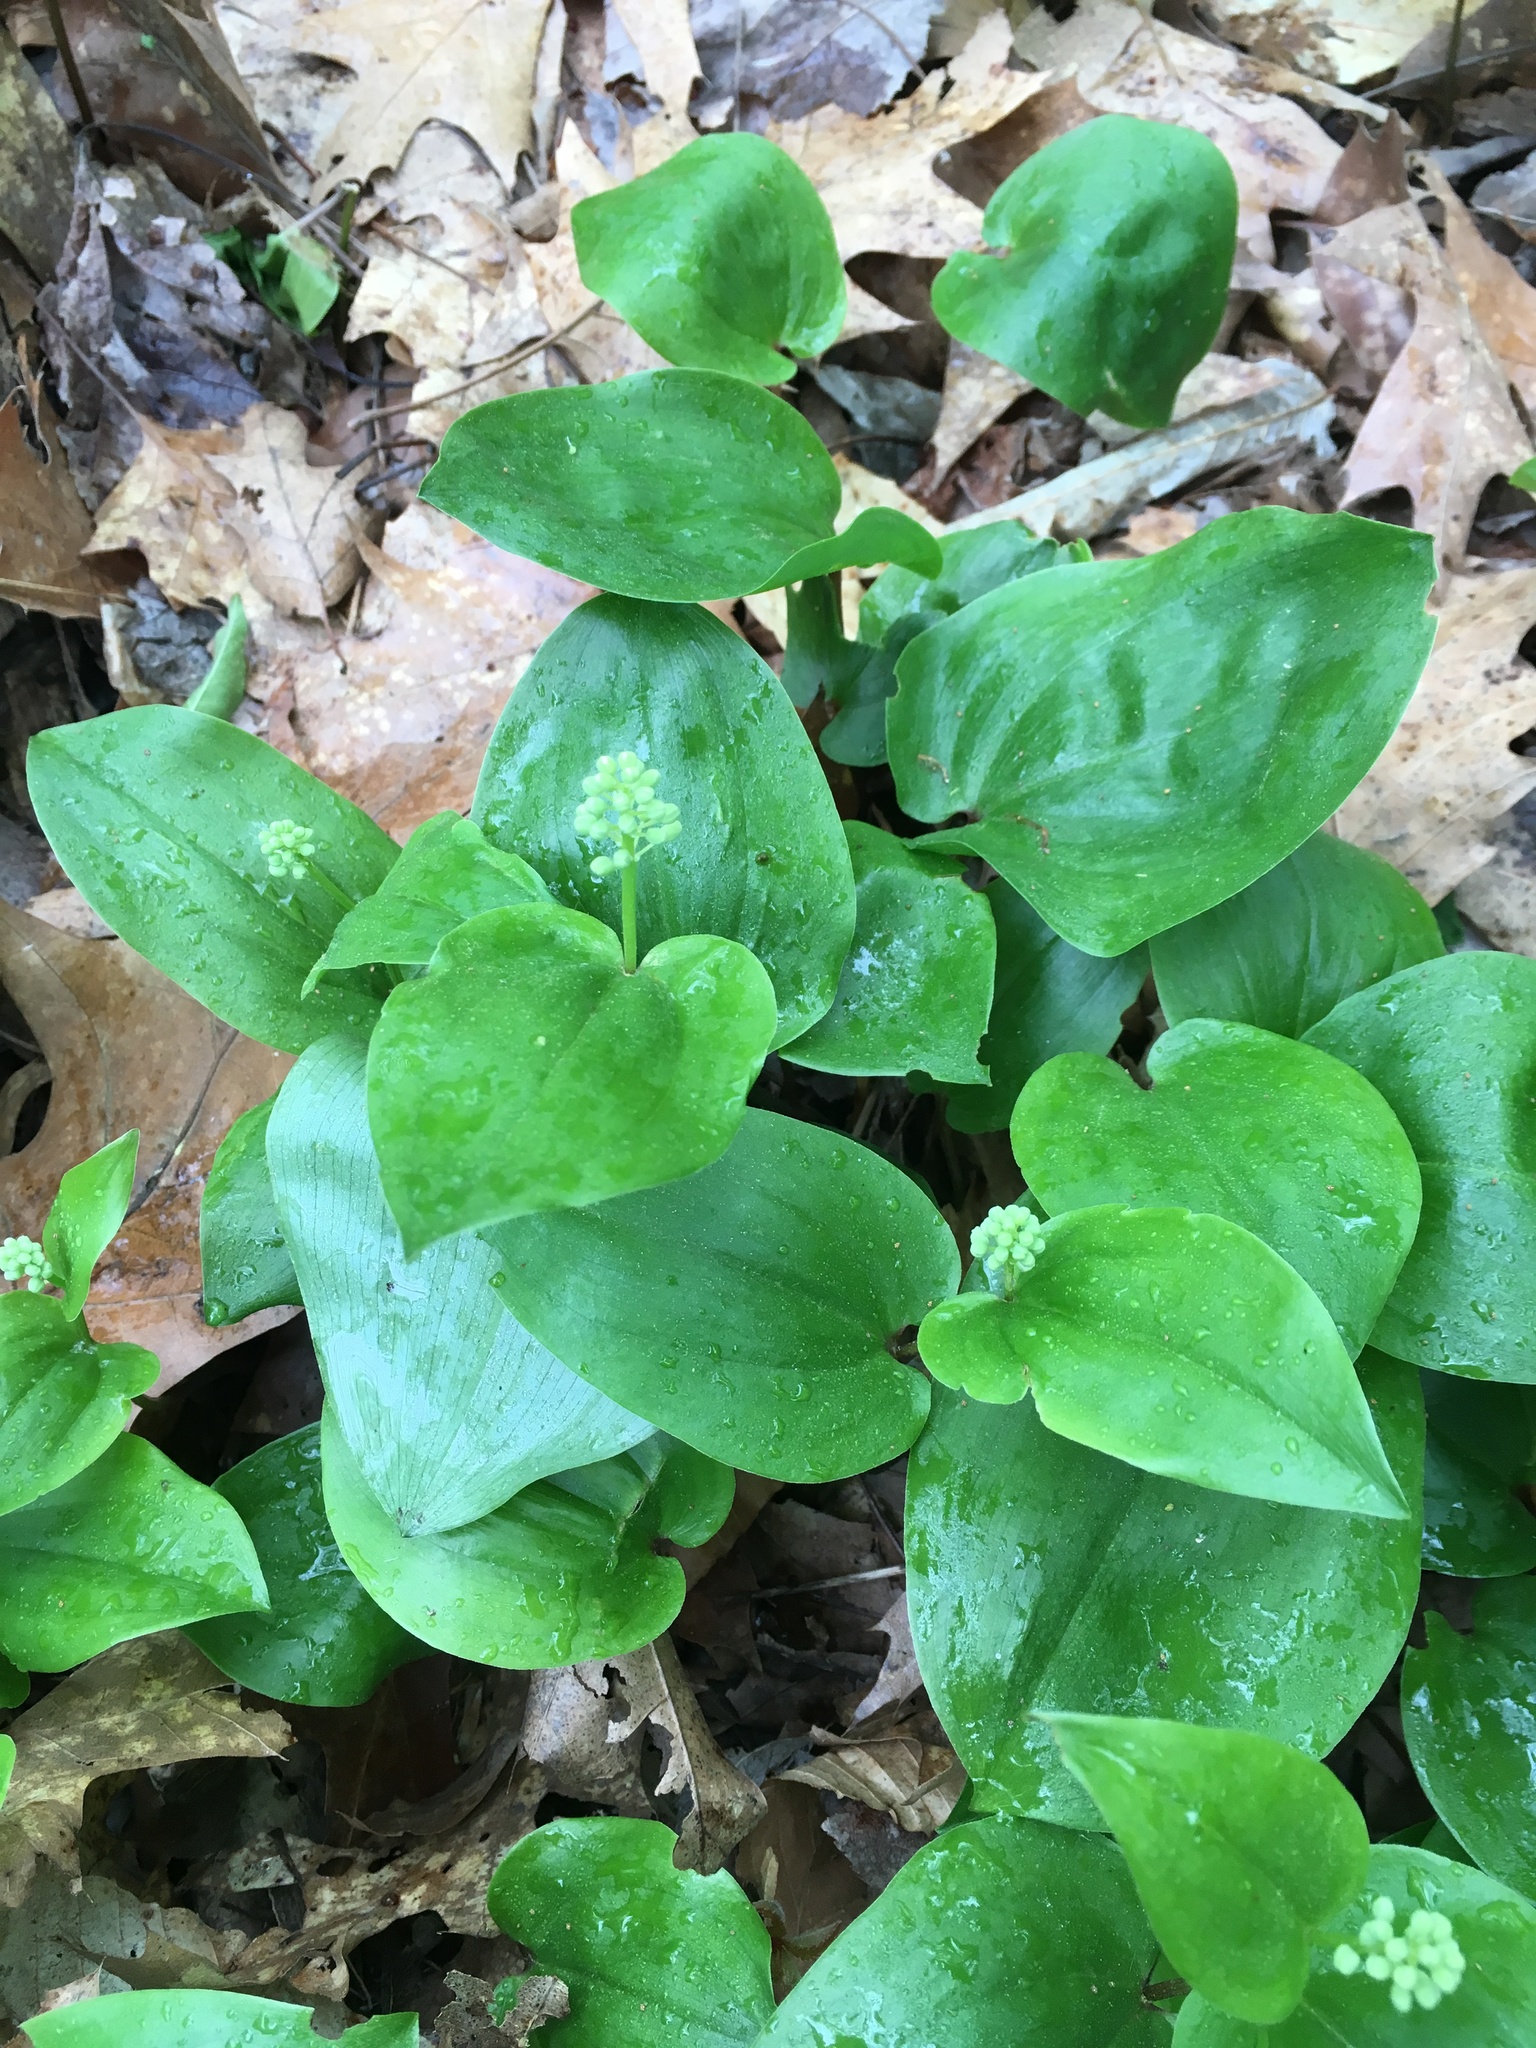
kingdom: Plantae
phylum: Tracheophyta
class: Liliopsida
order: Asparagales
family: Asparagaceae
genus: Maianthemum
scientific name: Maianthemum canadense
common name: False lily-of-the-valley
